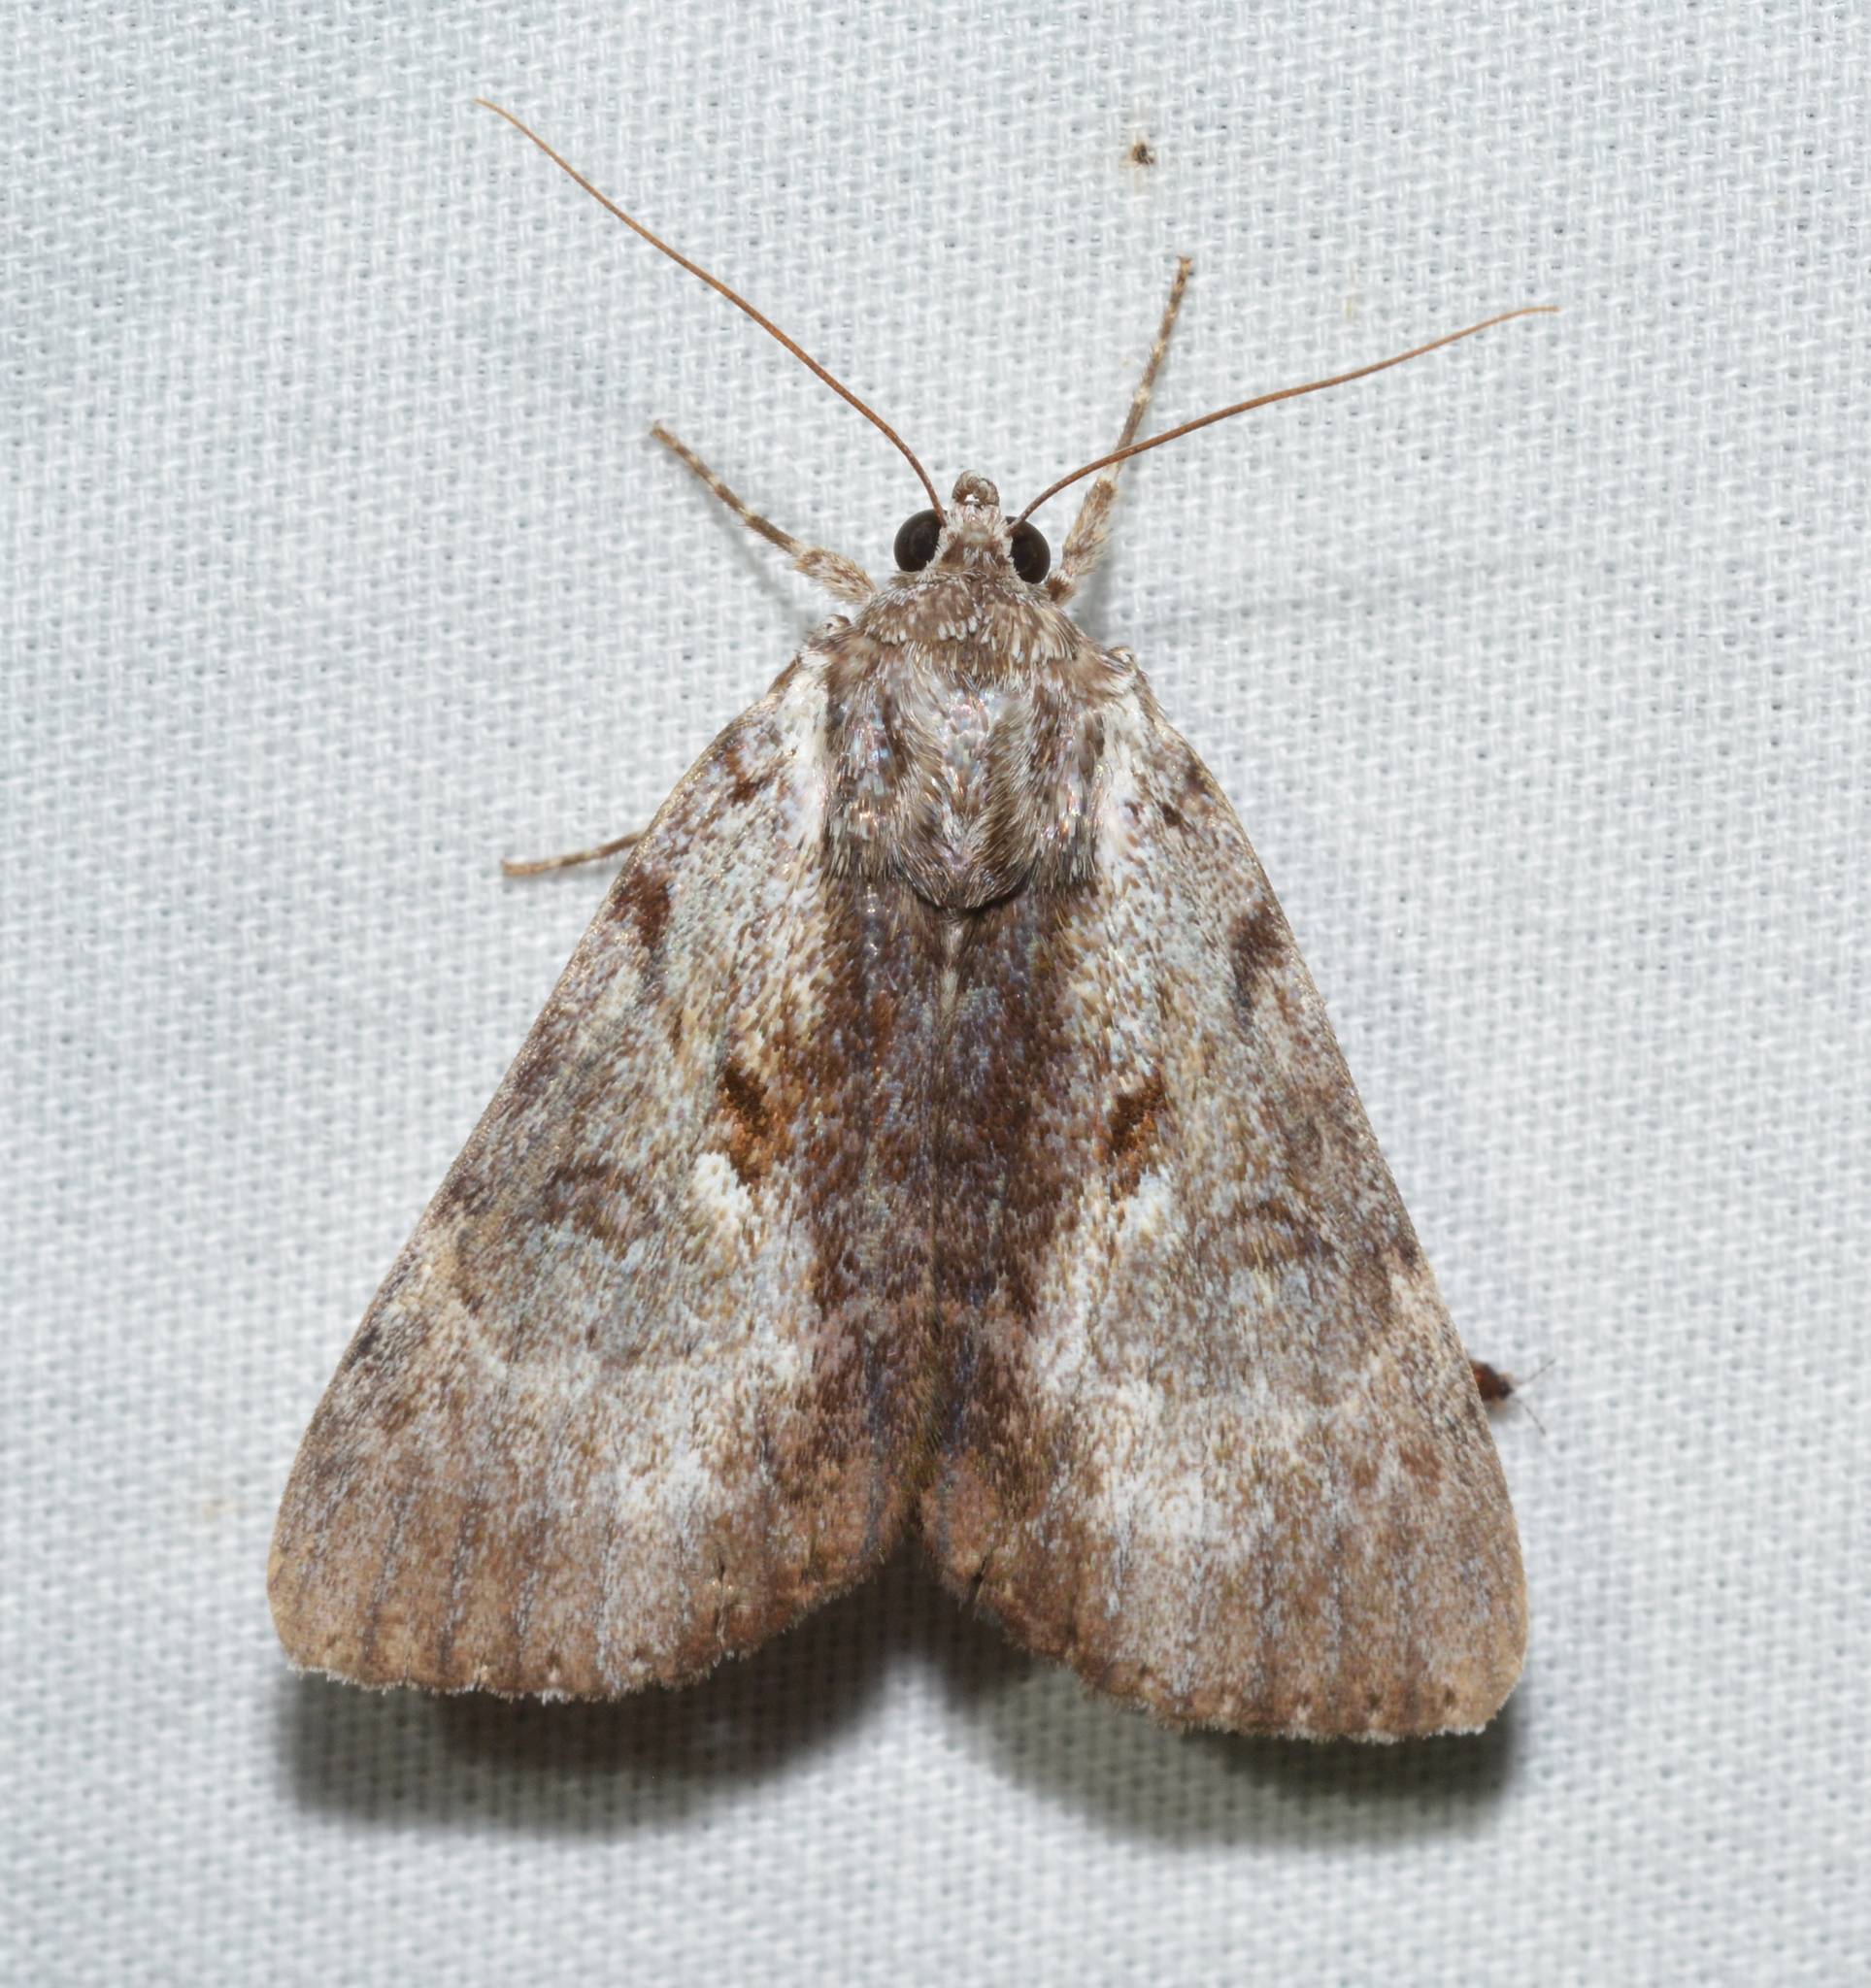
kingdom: Animalia
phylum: Arthropoda
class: Insecta
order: Lepidoptera
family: Erebidae
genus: Catocala
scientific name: Catocala andromedae
